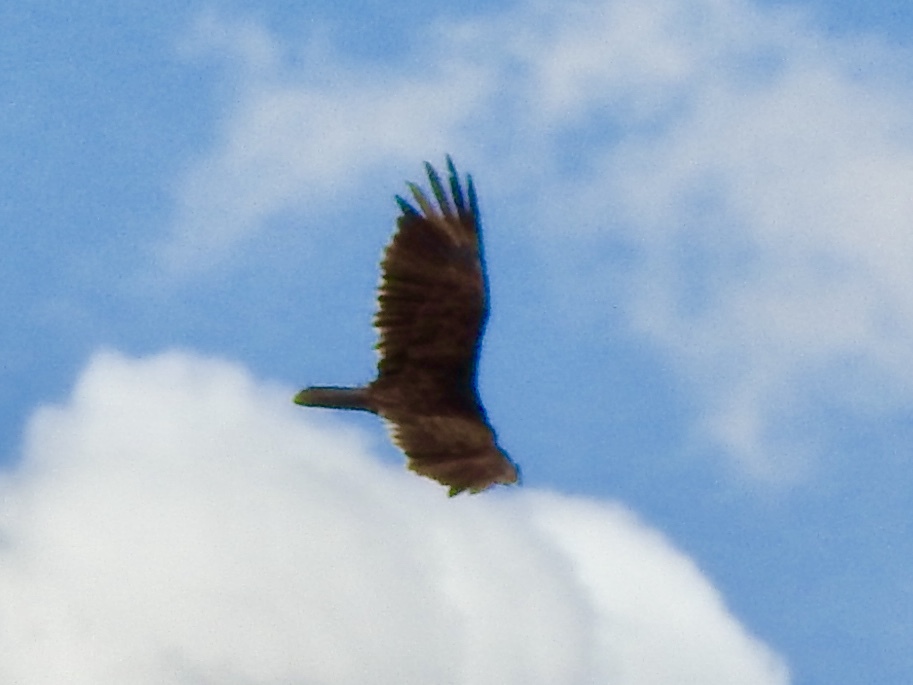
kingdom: Animalia
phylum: Chordata
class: Aves
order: Accipitriformes
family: Cathartidae
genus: Cathartes
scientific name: Cathartes aura
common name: Turkey vulture
